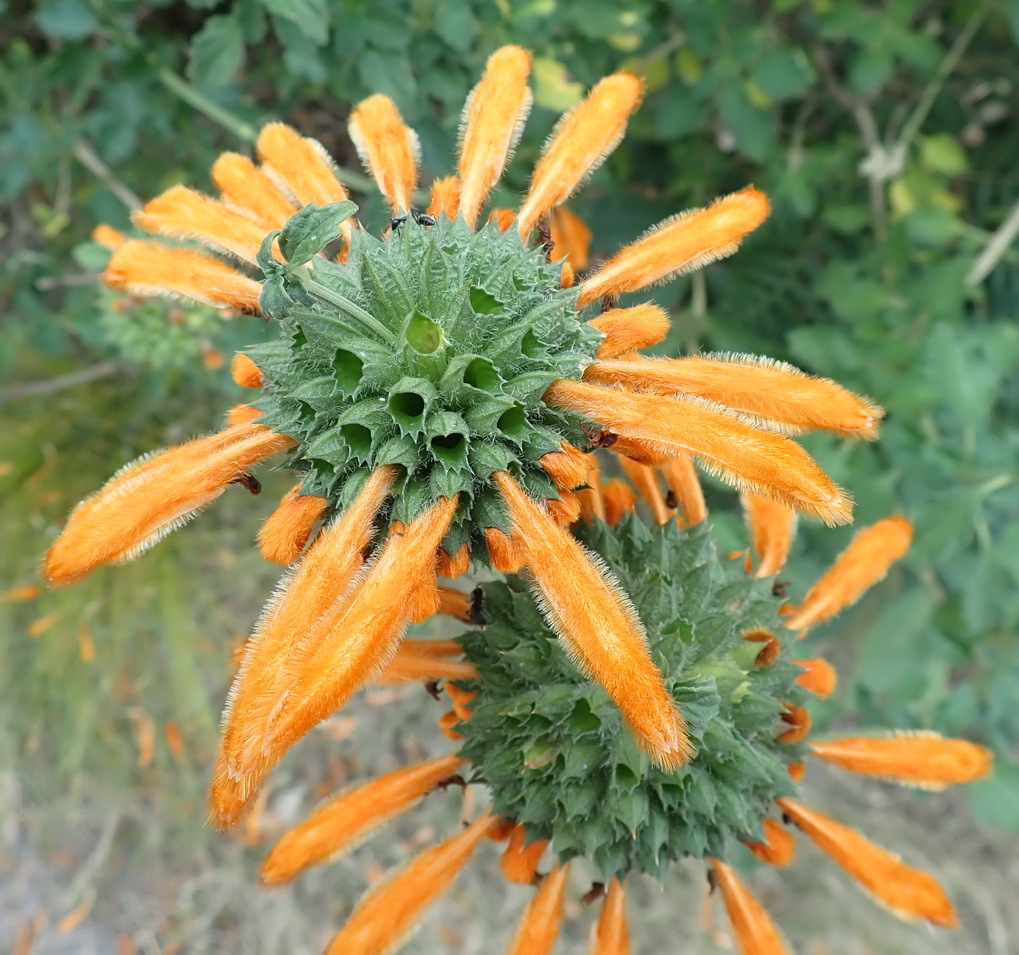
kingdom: Plantae
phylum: Tracheophyta
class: Magnoliopsida
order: Lamiales
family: Lamiaceae
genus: Leonotis
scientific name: Leonotis ocymifolia
